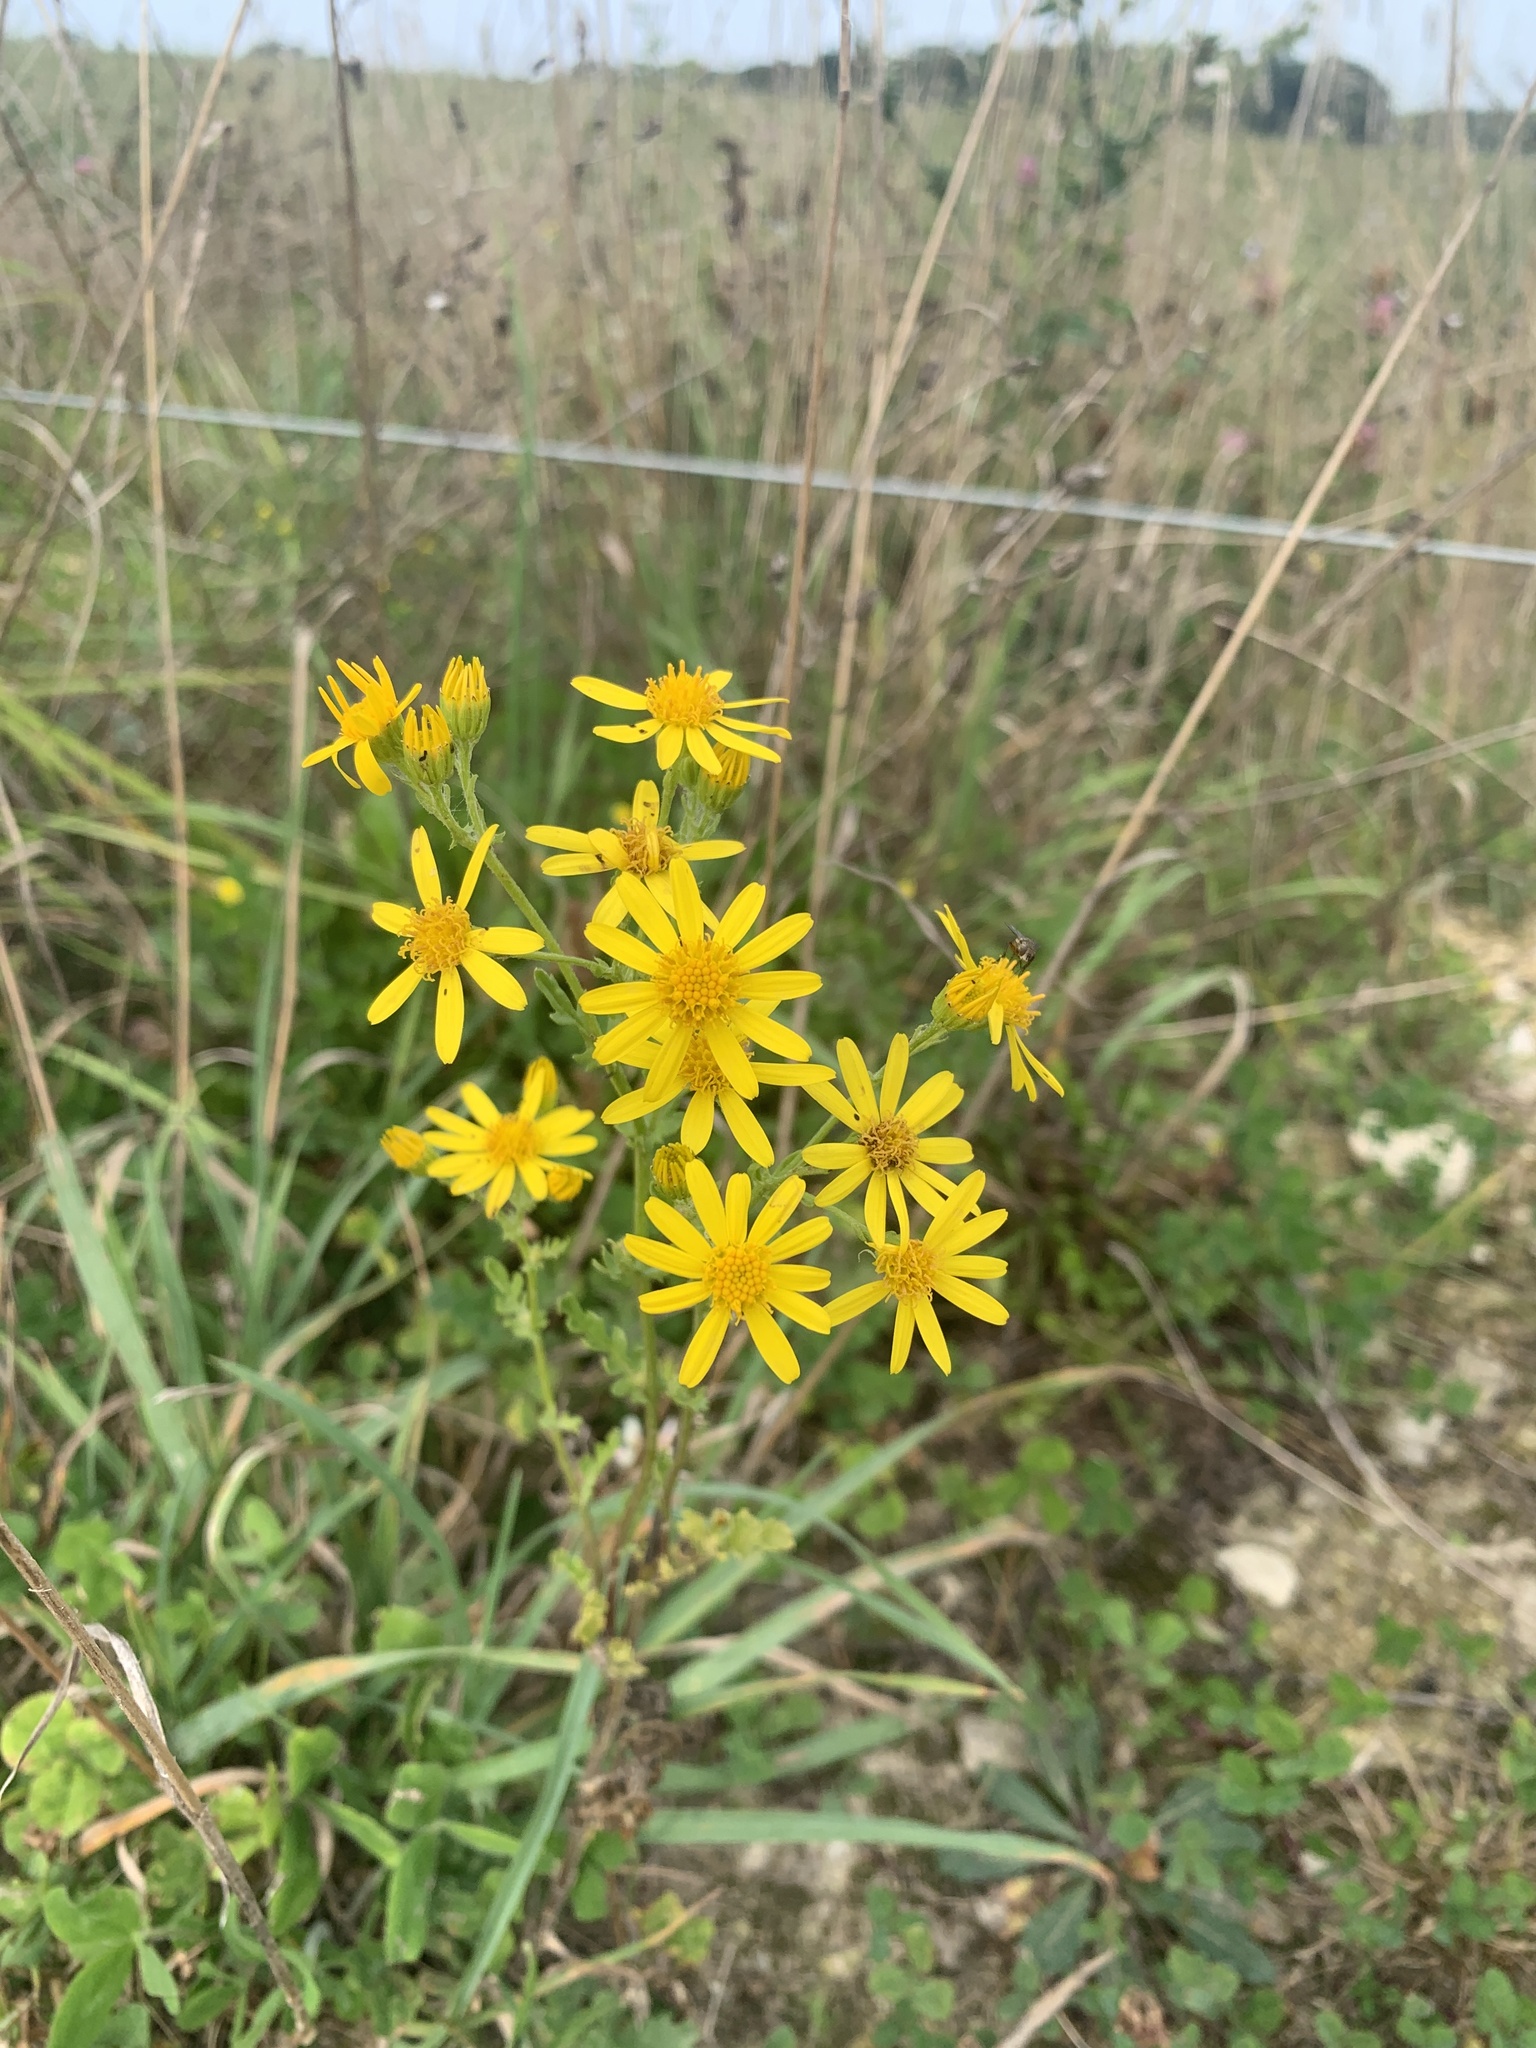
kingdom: Plantae
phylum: Tracheophyta
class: Magnoliopsida
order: Asterales
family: Asteraceae
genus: Jacobaea
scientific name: Jacobaea vulgaris
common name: Stinking willie
